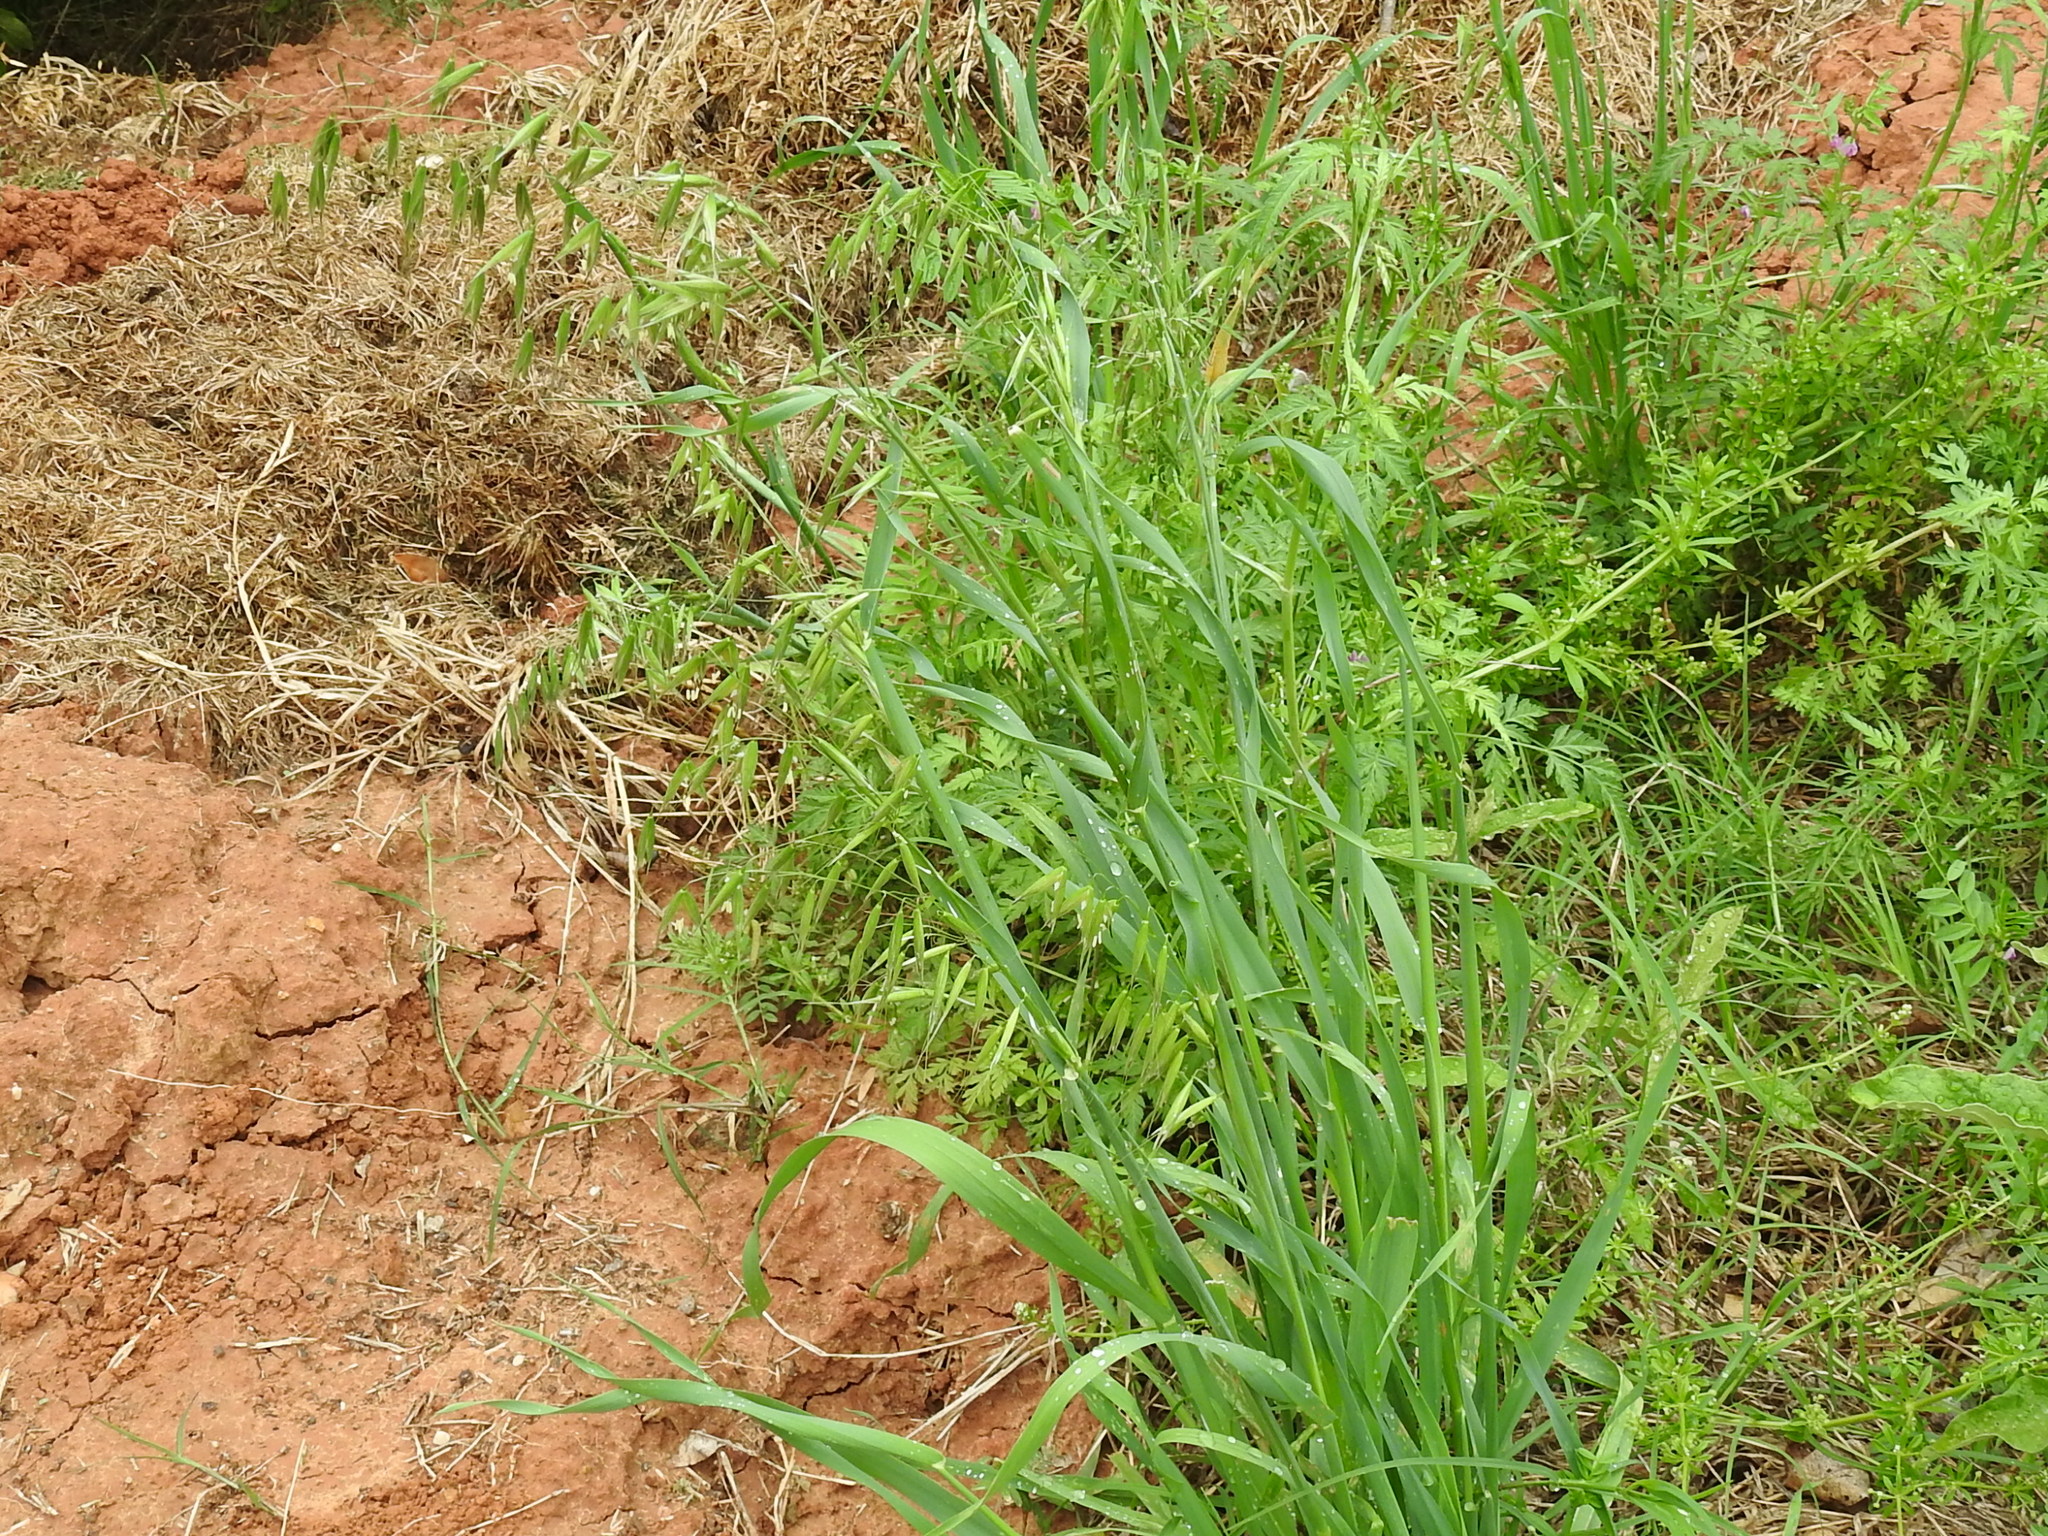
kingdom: Plantae
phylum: Tracheophyta
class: Liliopsida
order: Poales
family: Poaceae
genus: Avena
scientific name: Avena sativa
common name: Oat
